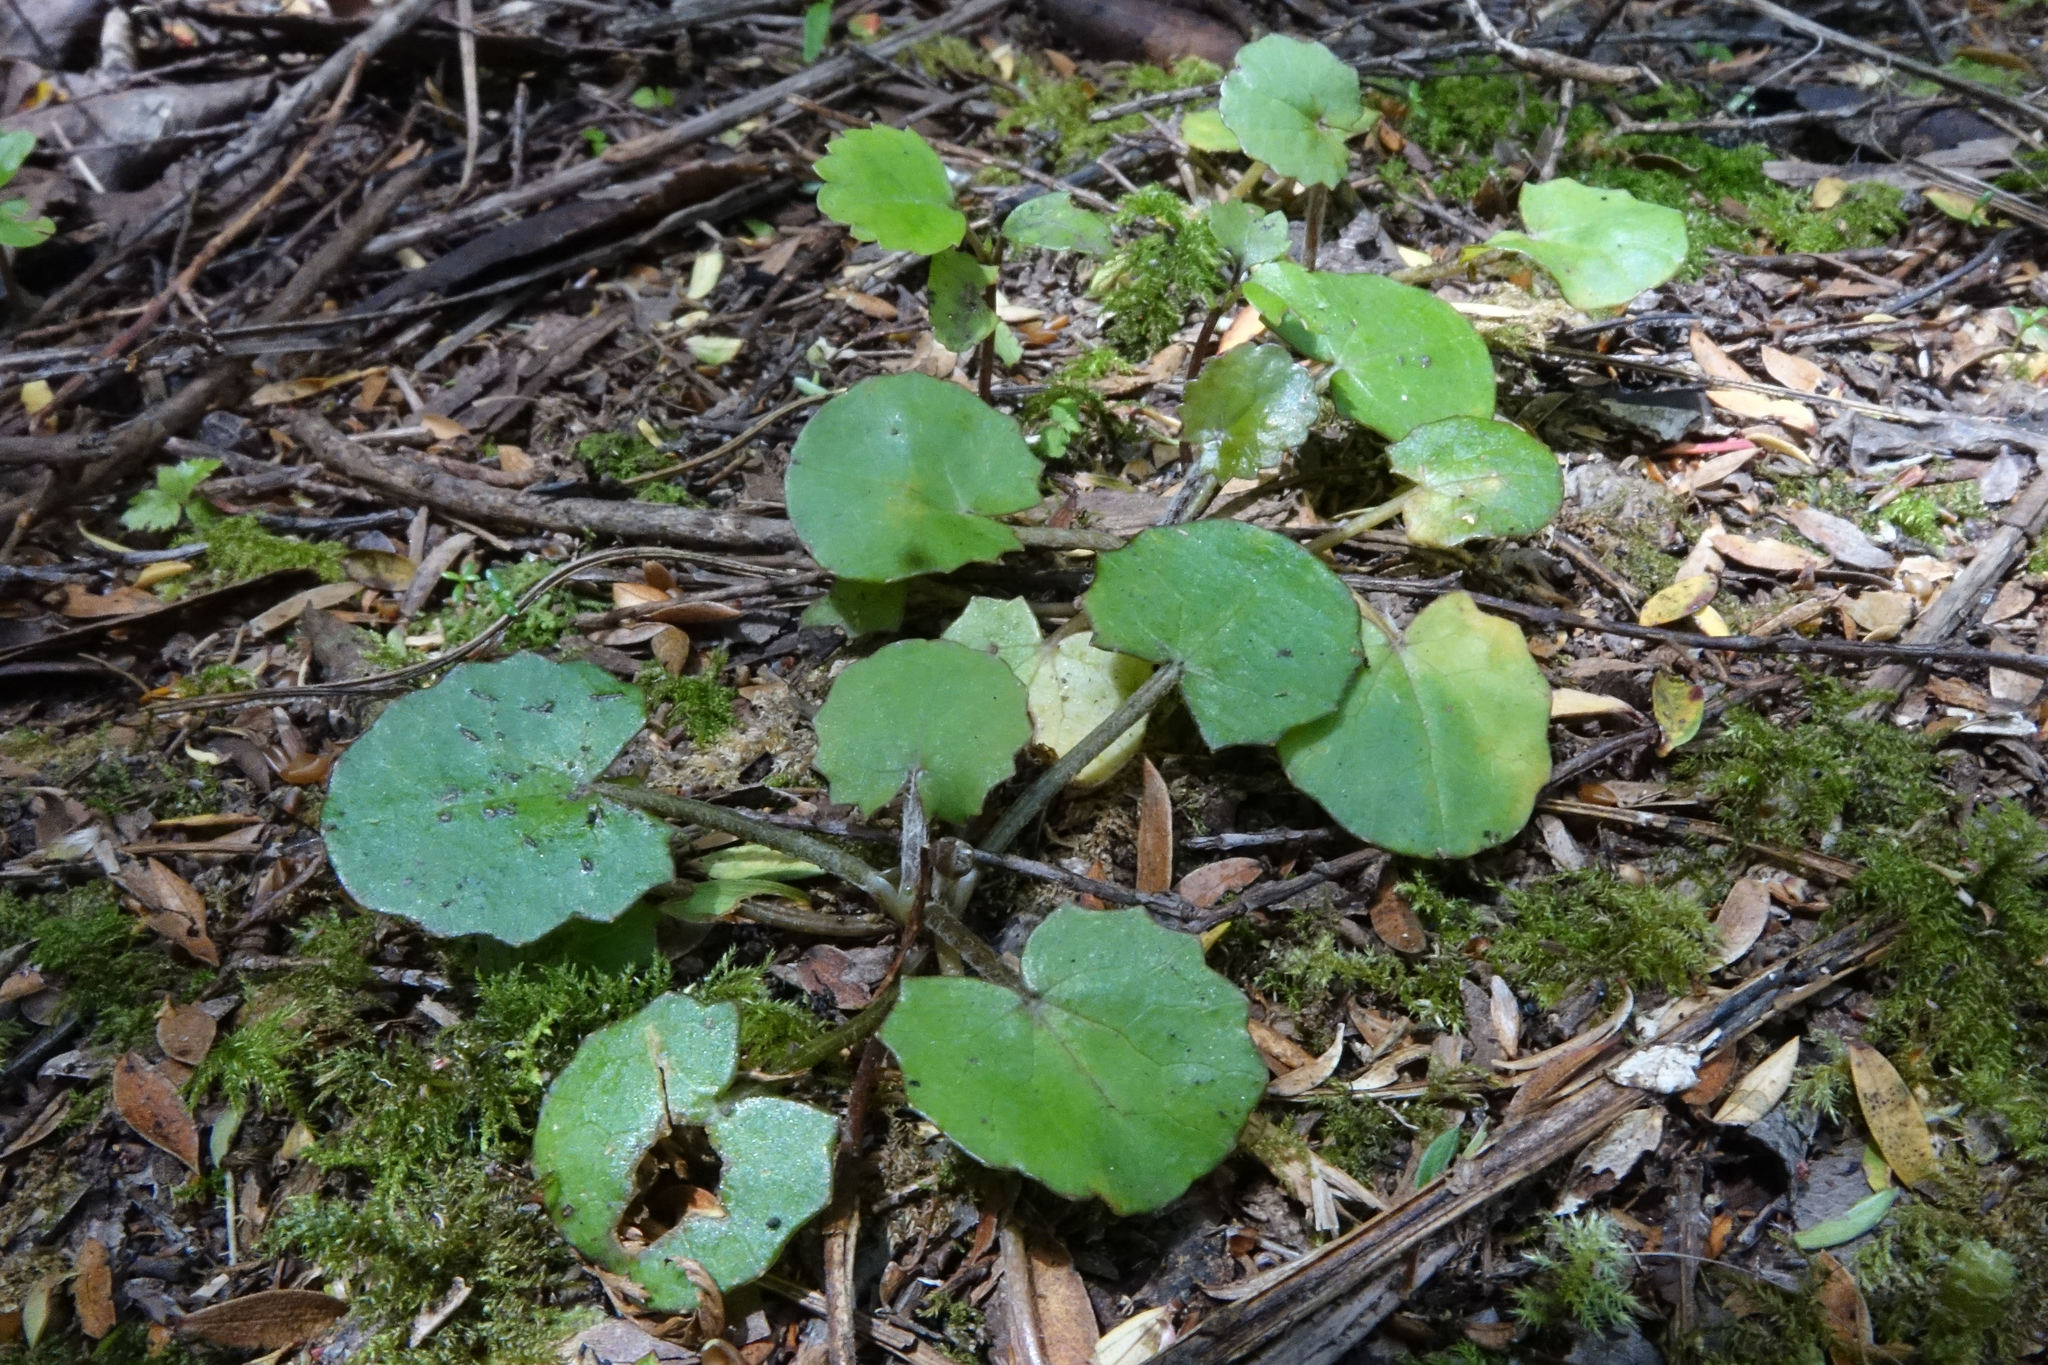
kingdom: Plantae
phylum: Tracheophyta
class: Magnoliopsida
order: Apiales
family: Apiaceae
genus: Centella
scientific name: Centella uniflora
